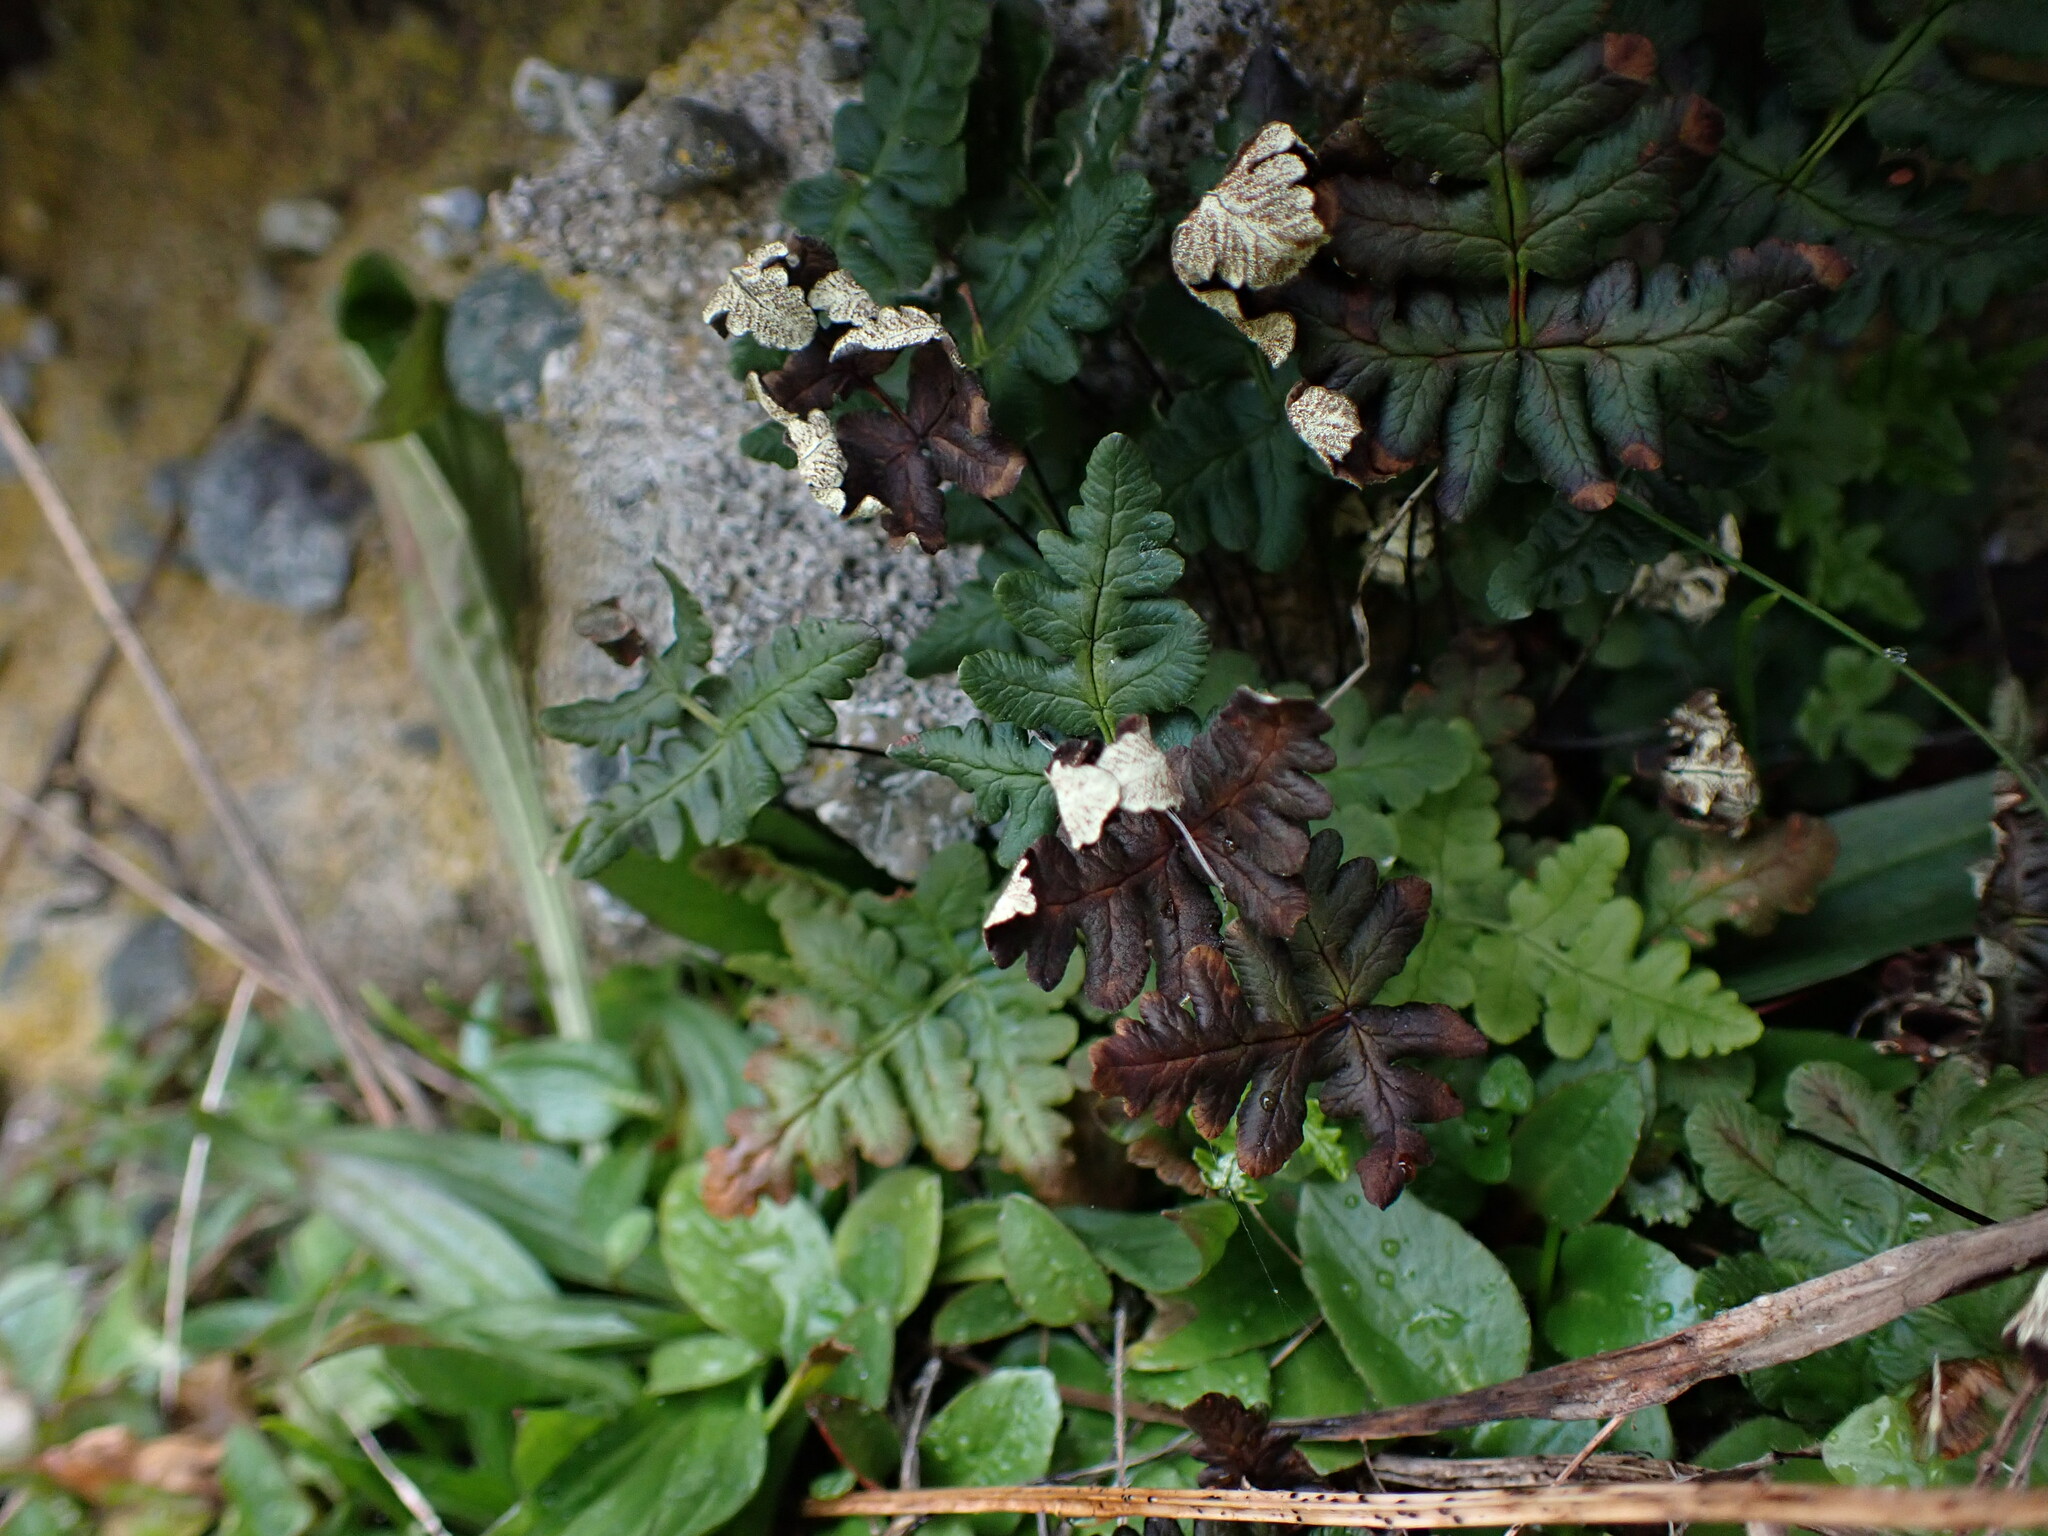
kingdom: Plantae
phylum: Tracheophyta
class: Polypodiopsida
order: Polypodiales
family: Pteridaceae
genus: Pentagramma
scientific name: Pentagramma triangularis
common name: Gold fern
